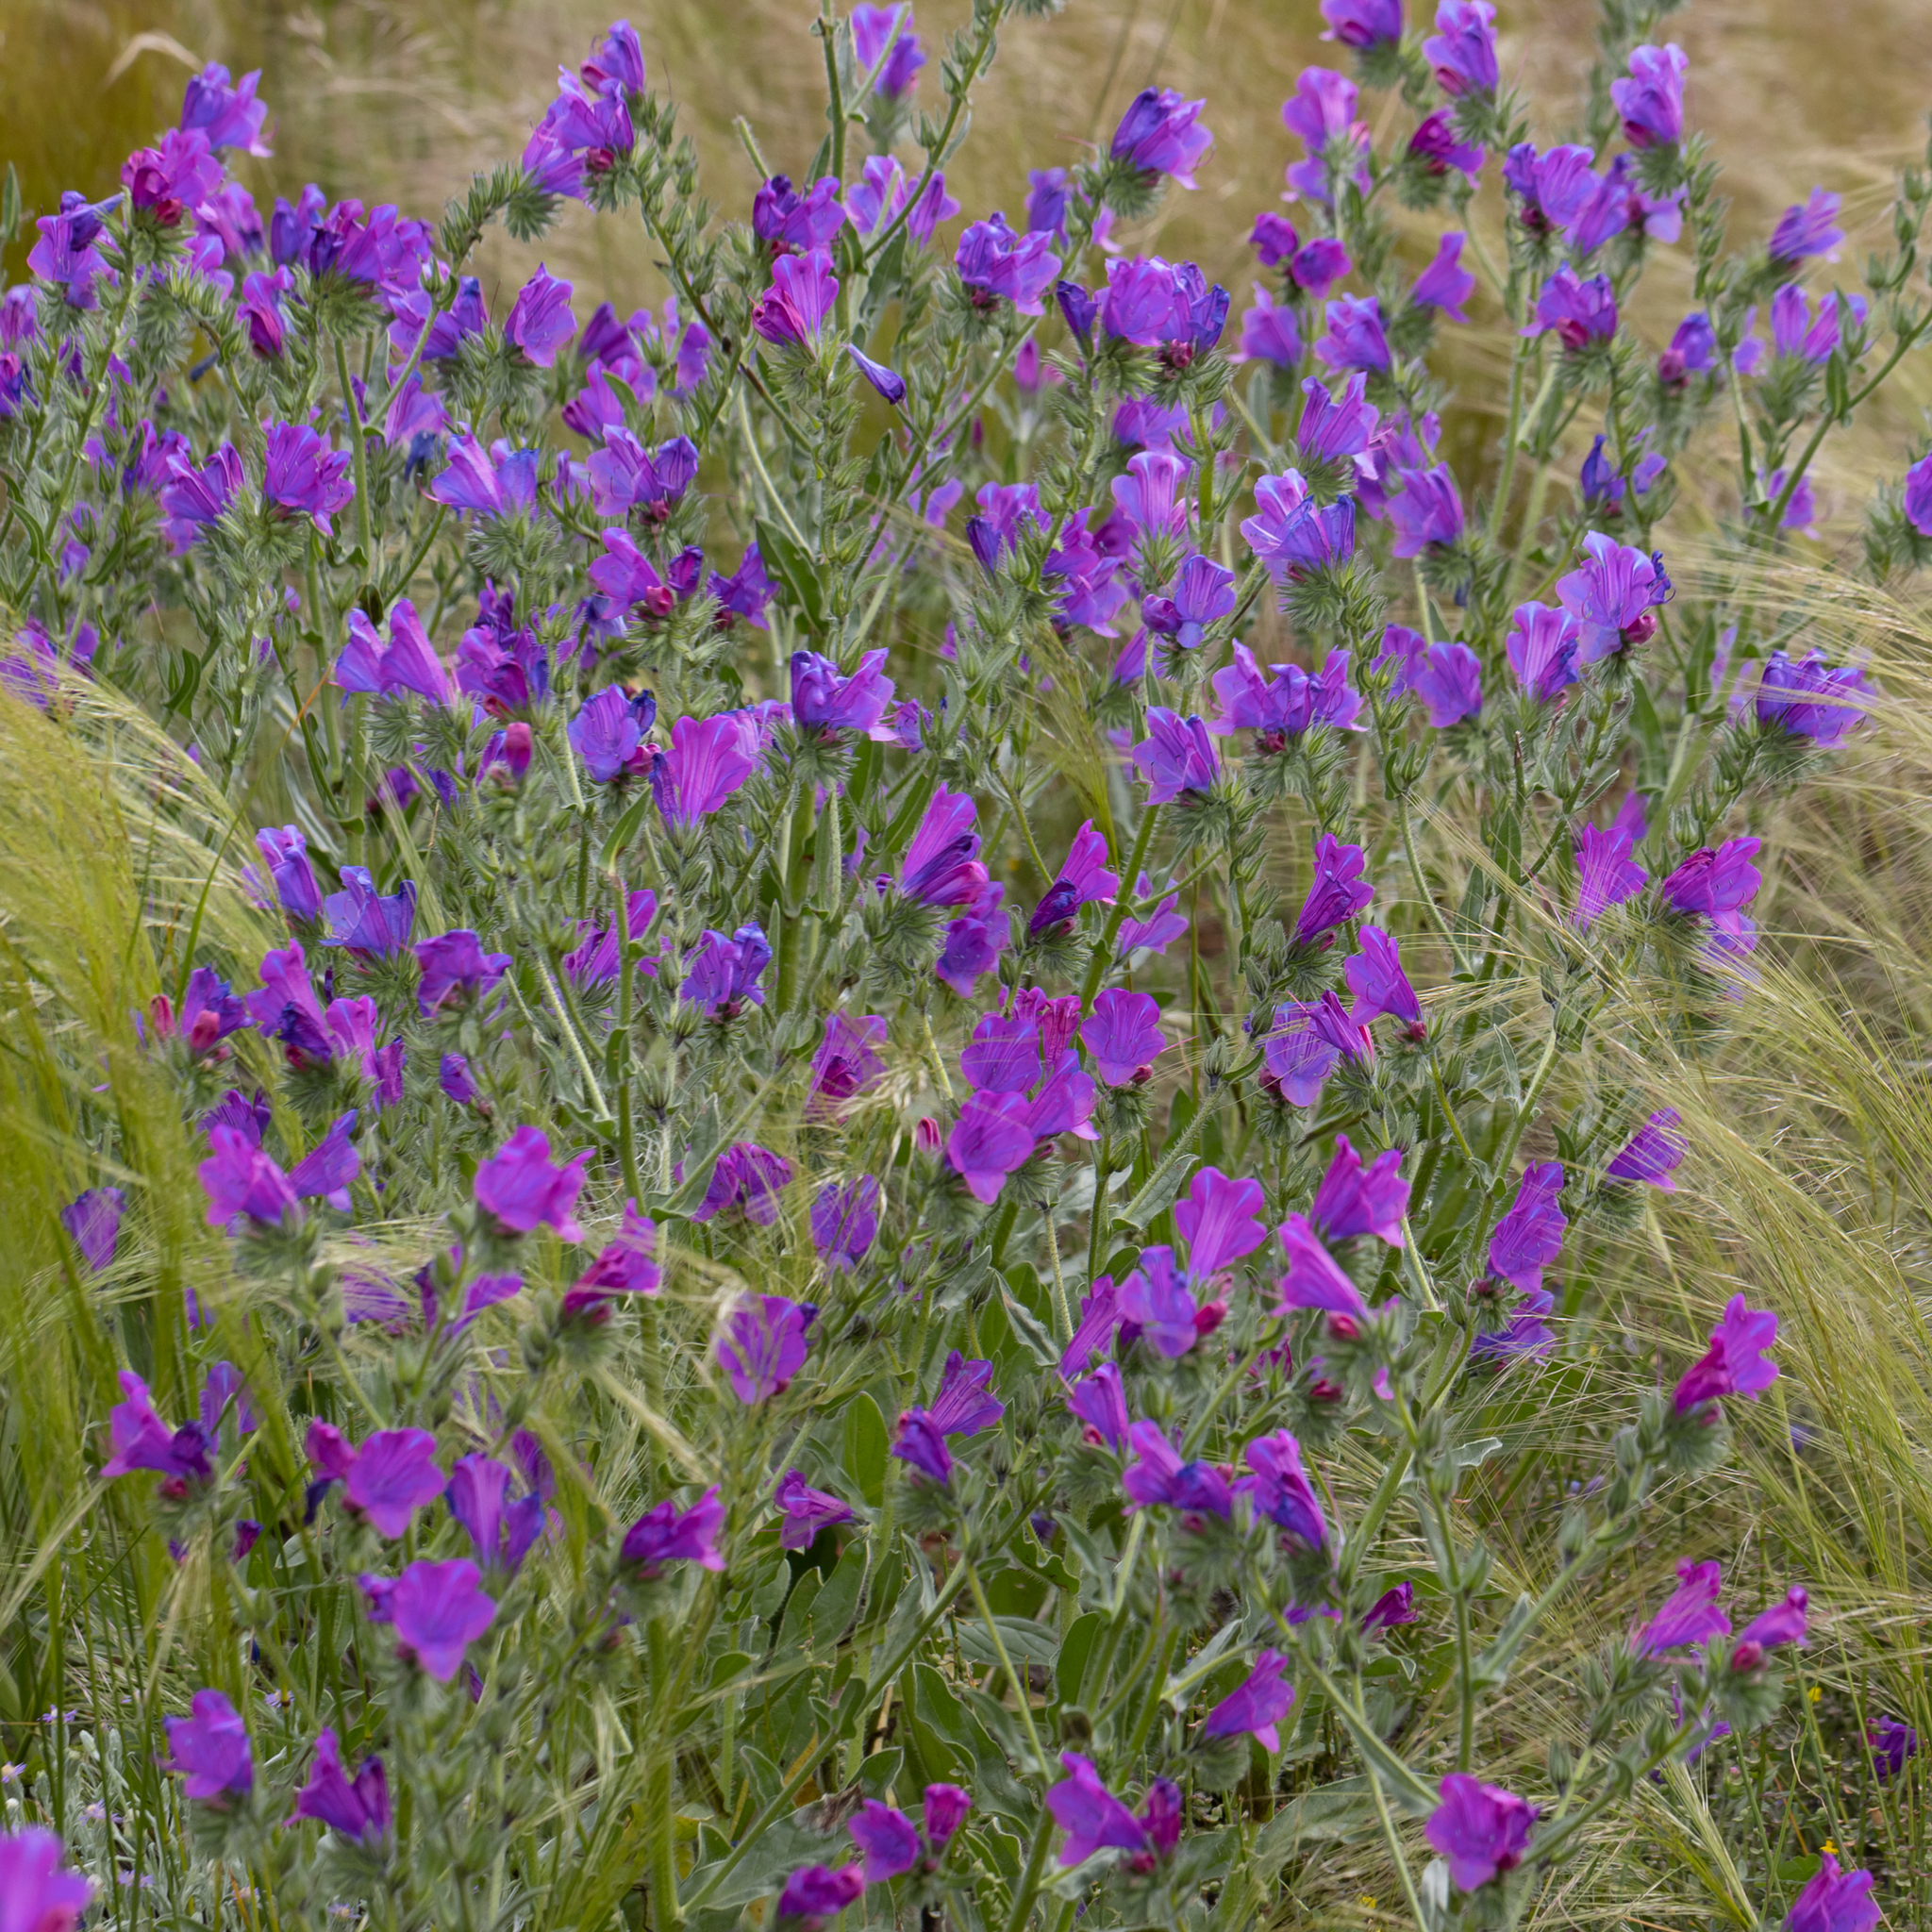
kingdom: Plantae
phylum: Tracheophyta
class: Magnoliopsida
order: Boraginales
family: Boraginaceae
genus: Echium
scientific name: Echium plantagineum
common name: Purple viper's-bugloss
